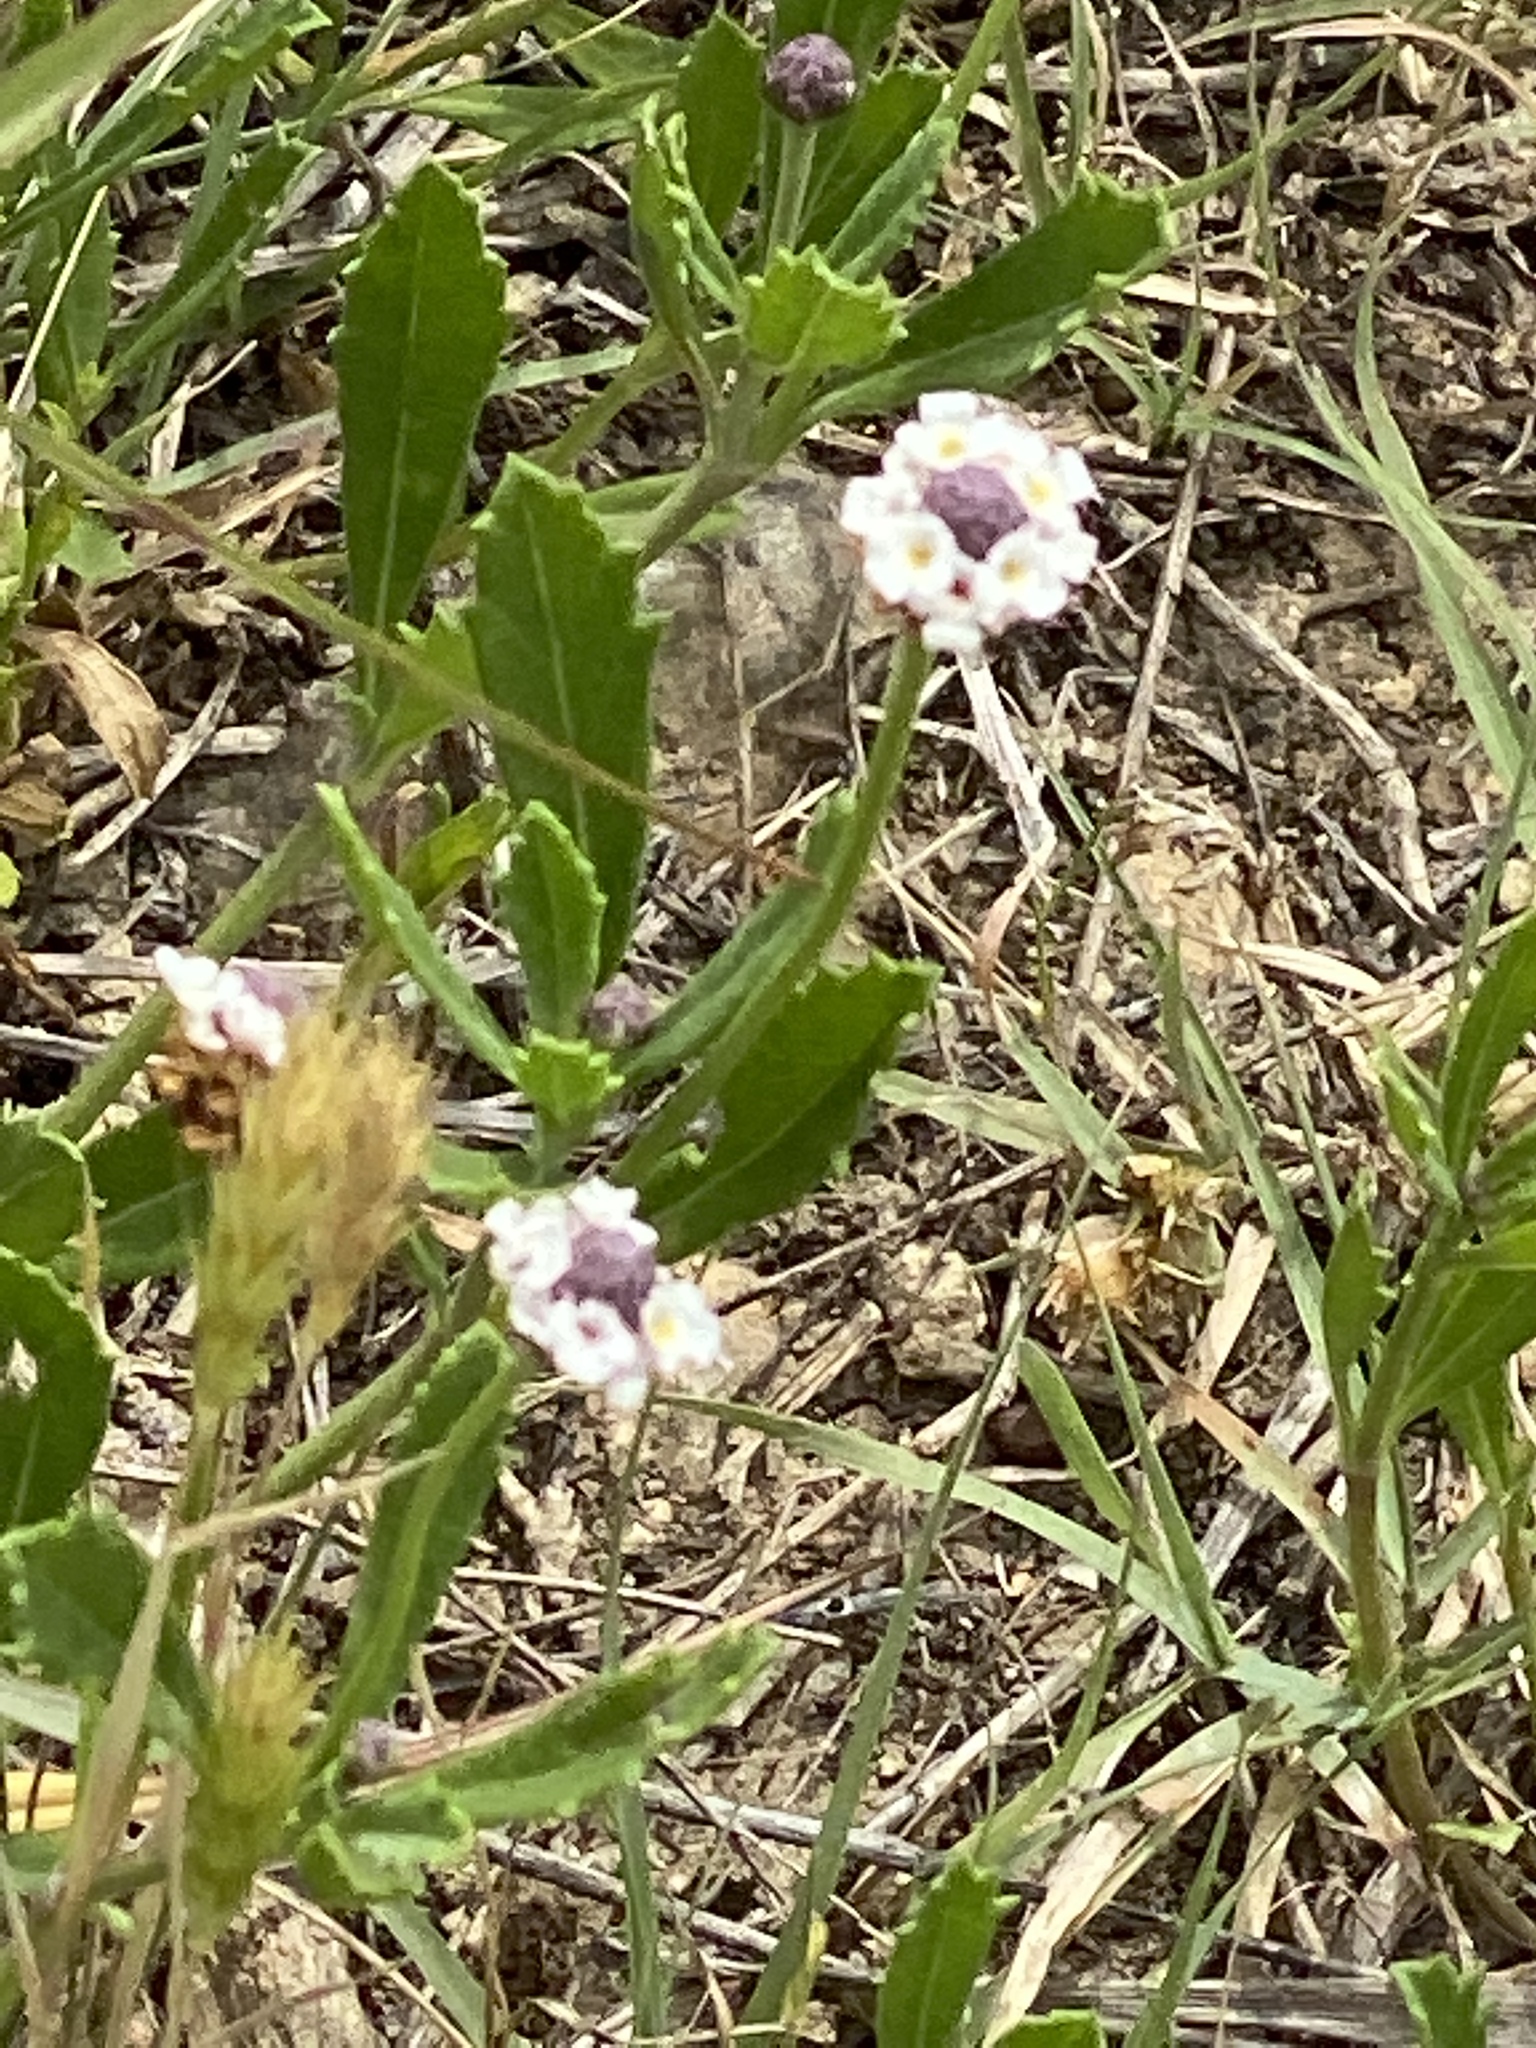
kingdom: Plantae
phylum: Tracheophyta
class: Magnoliopsida
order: Lamiales
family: Verbenaceae
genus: Phyla
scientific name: Phyla nodiflora
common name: Frogfruit
